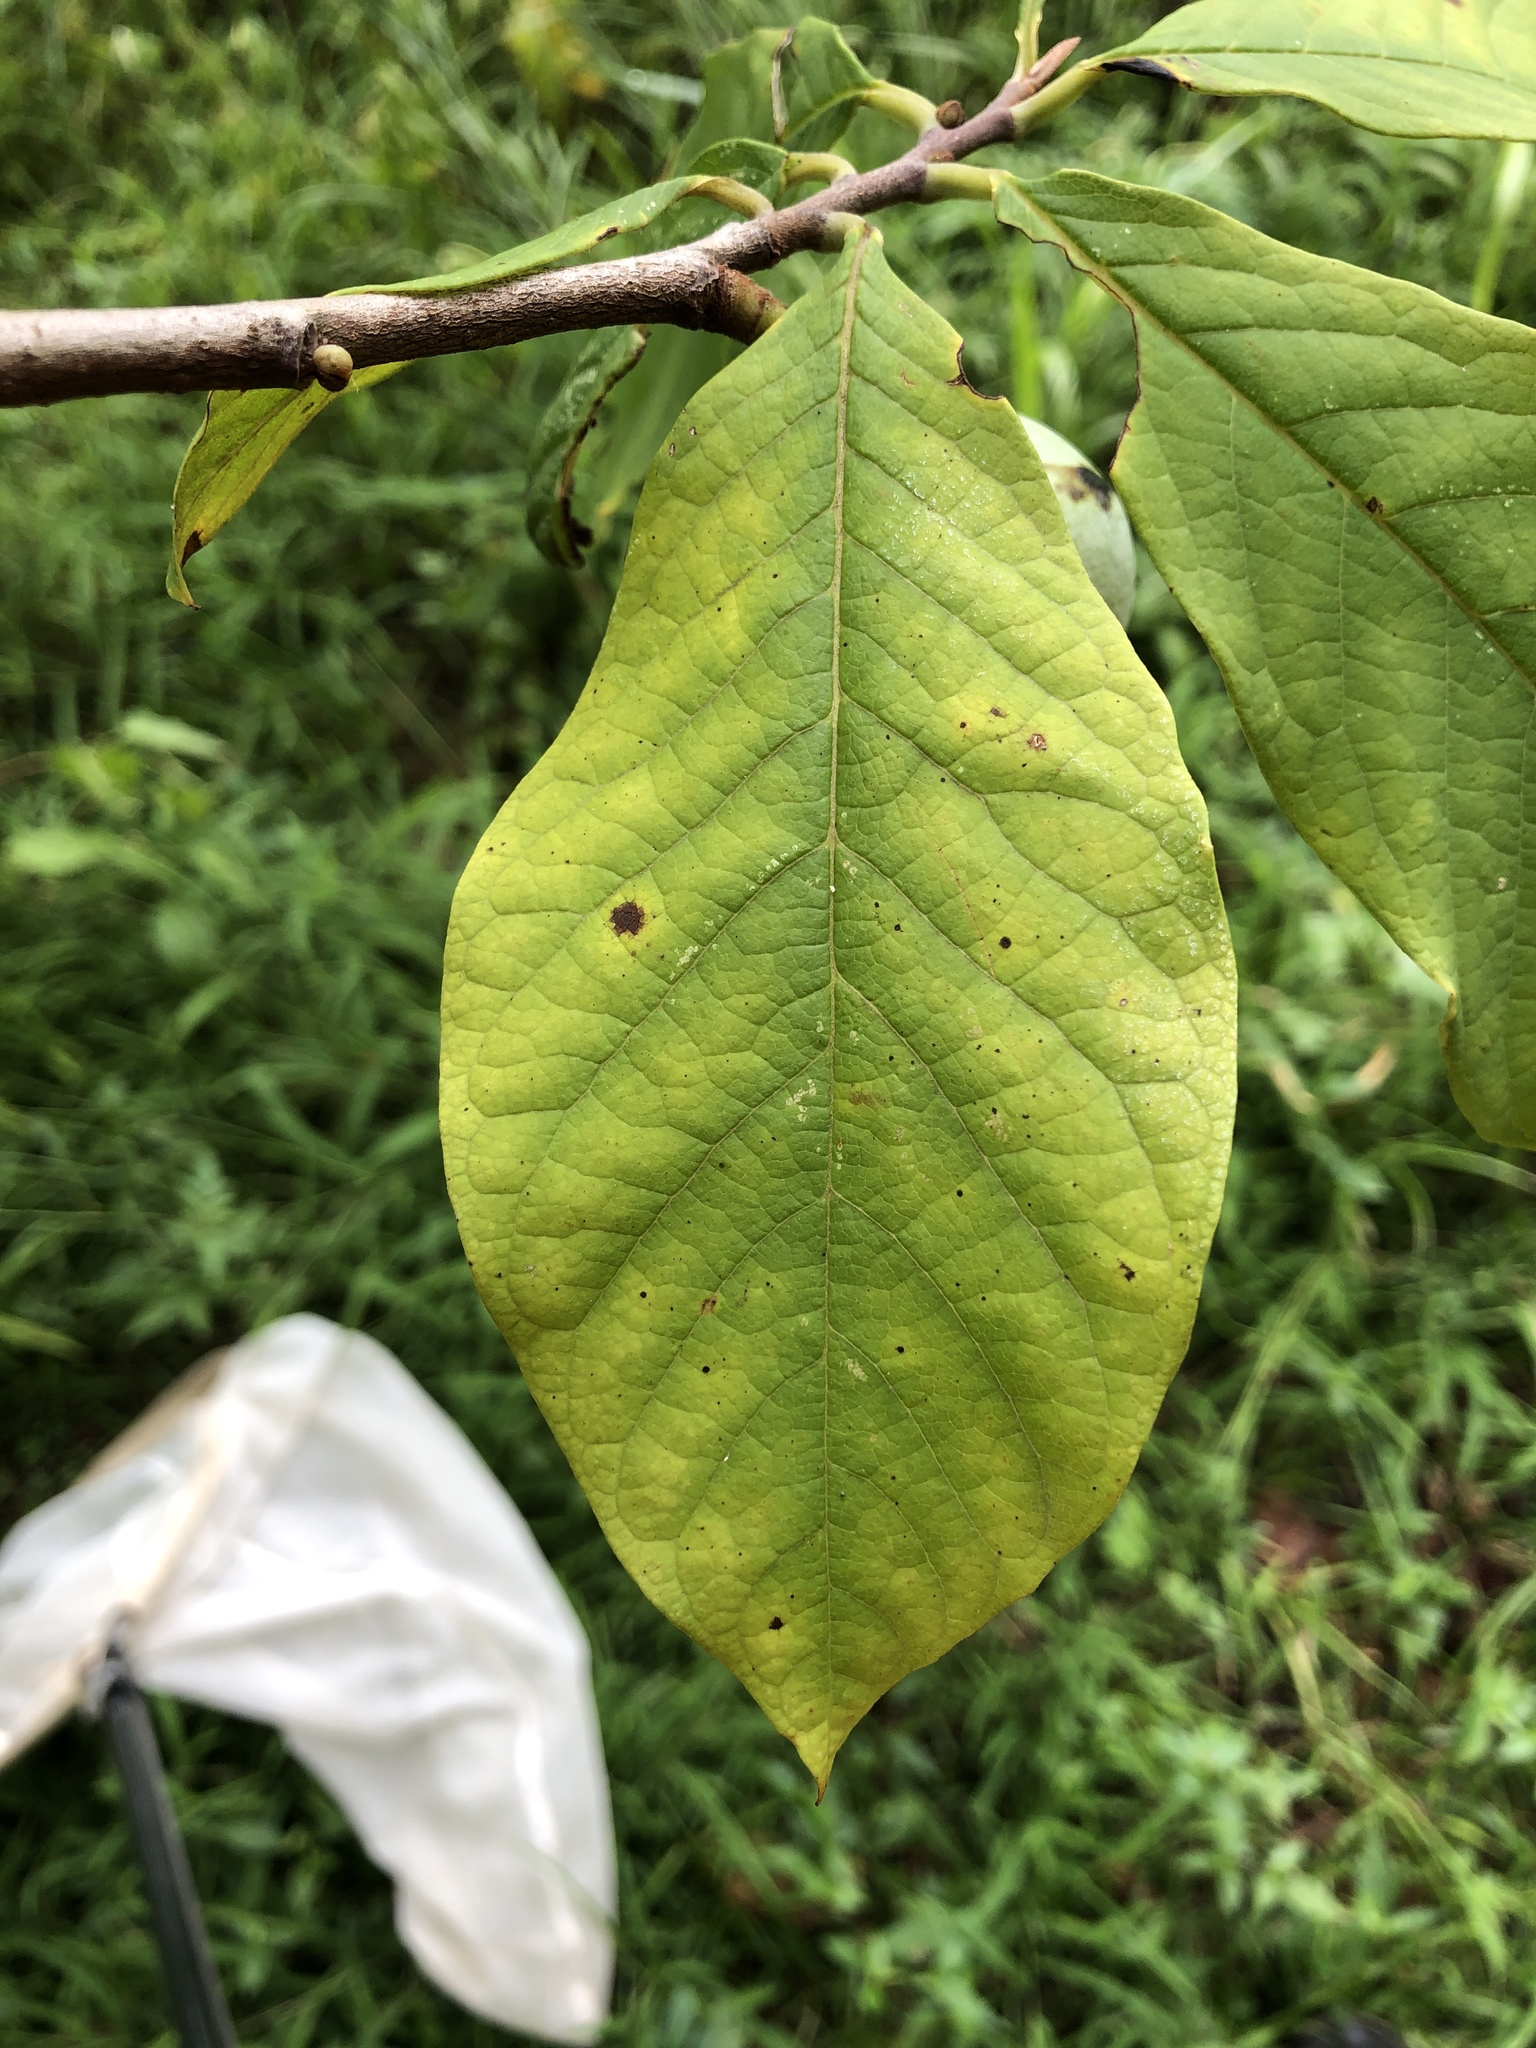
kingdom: Plantae
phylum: Tracheophyta
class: Magnoliopsida
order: Magnoliales
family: Annonaceae
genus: Asimina
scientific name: Asimina triloba
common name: Dog-banana
